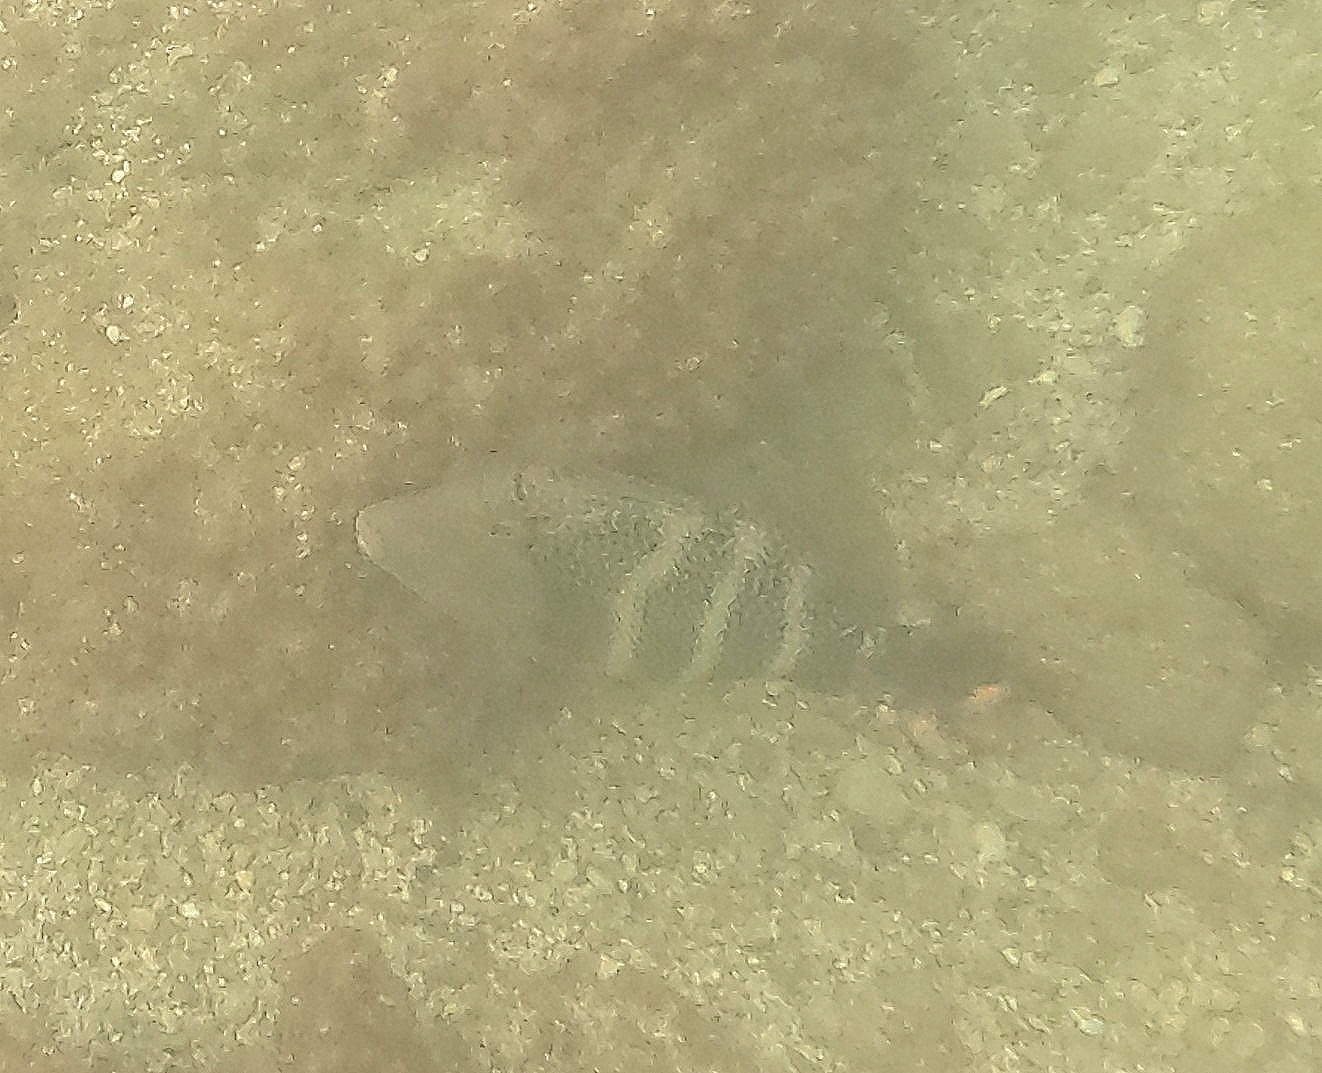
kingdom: Animalia
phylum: Chordata
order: Tetraodontiformes
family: Balistidae
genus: Pseudobalistes
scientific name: Pseudobalistes naufragium
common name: Blunthead triggerfish
